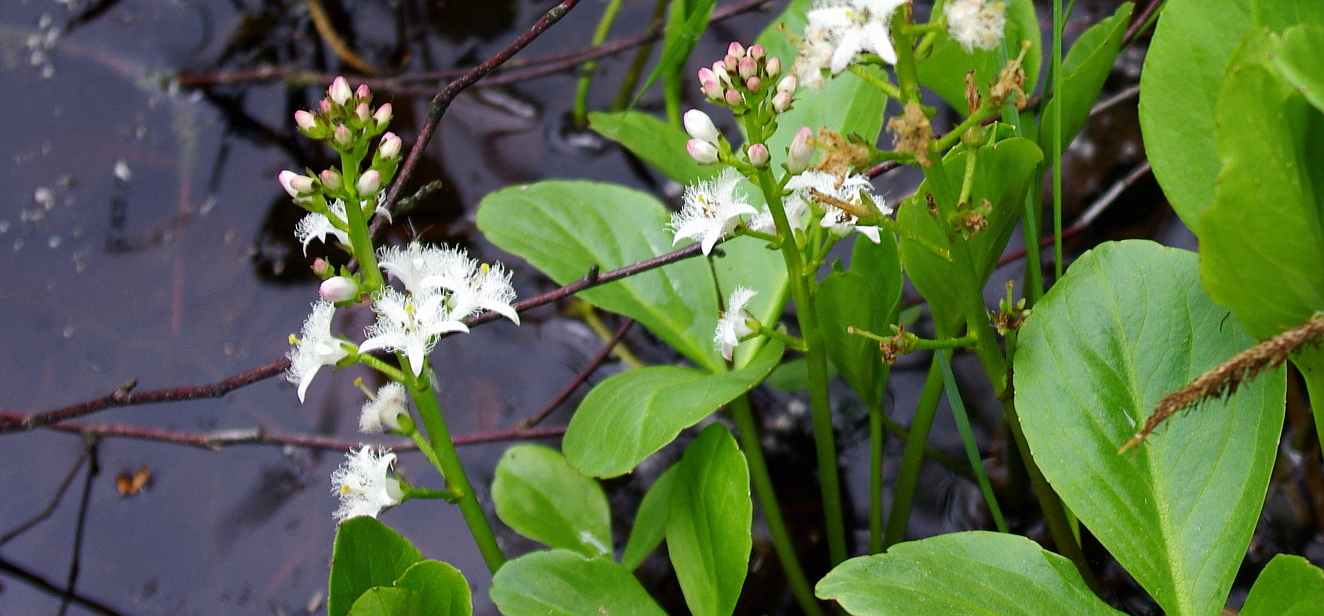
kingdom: Plantae
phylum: Tracheophyta
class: Magnoliopsida
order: Asterales
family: Menyanthaceae
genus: Menyanthes
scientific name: Menyanthes trifoliata
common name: Bogbean
